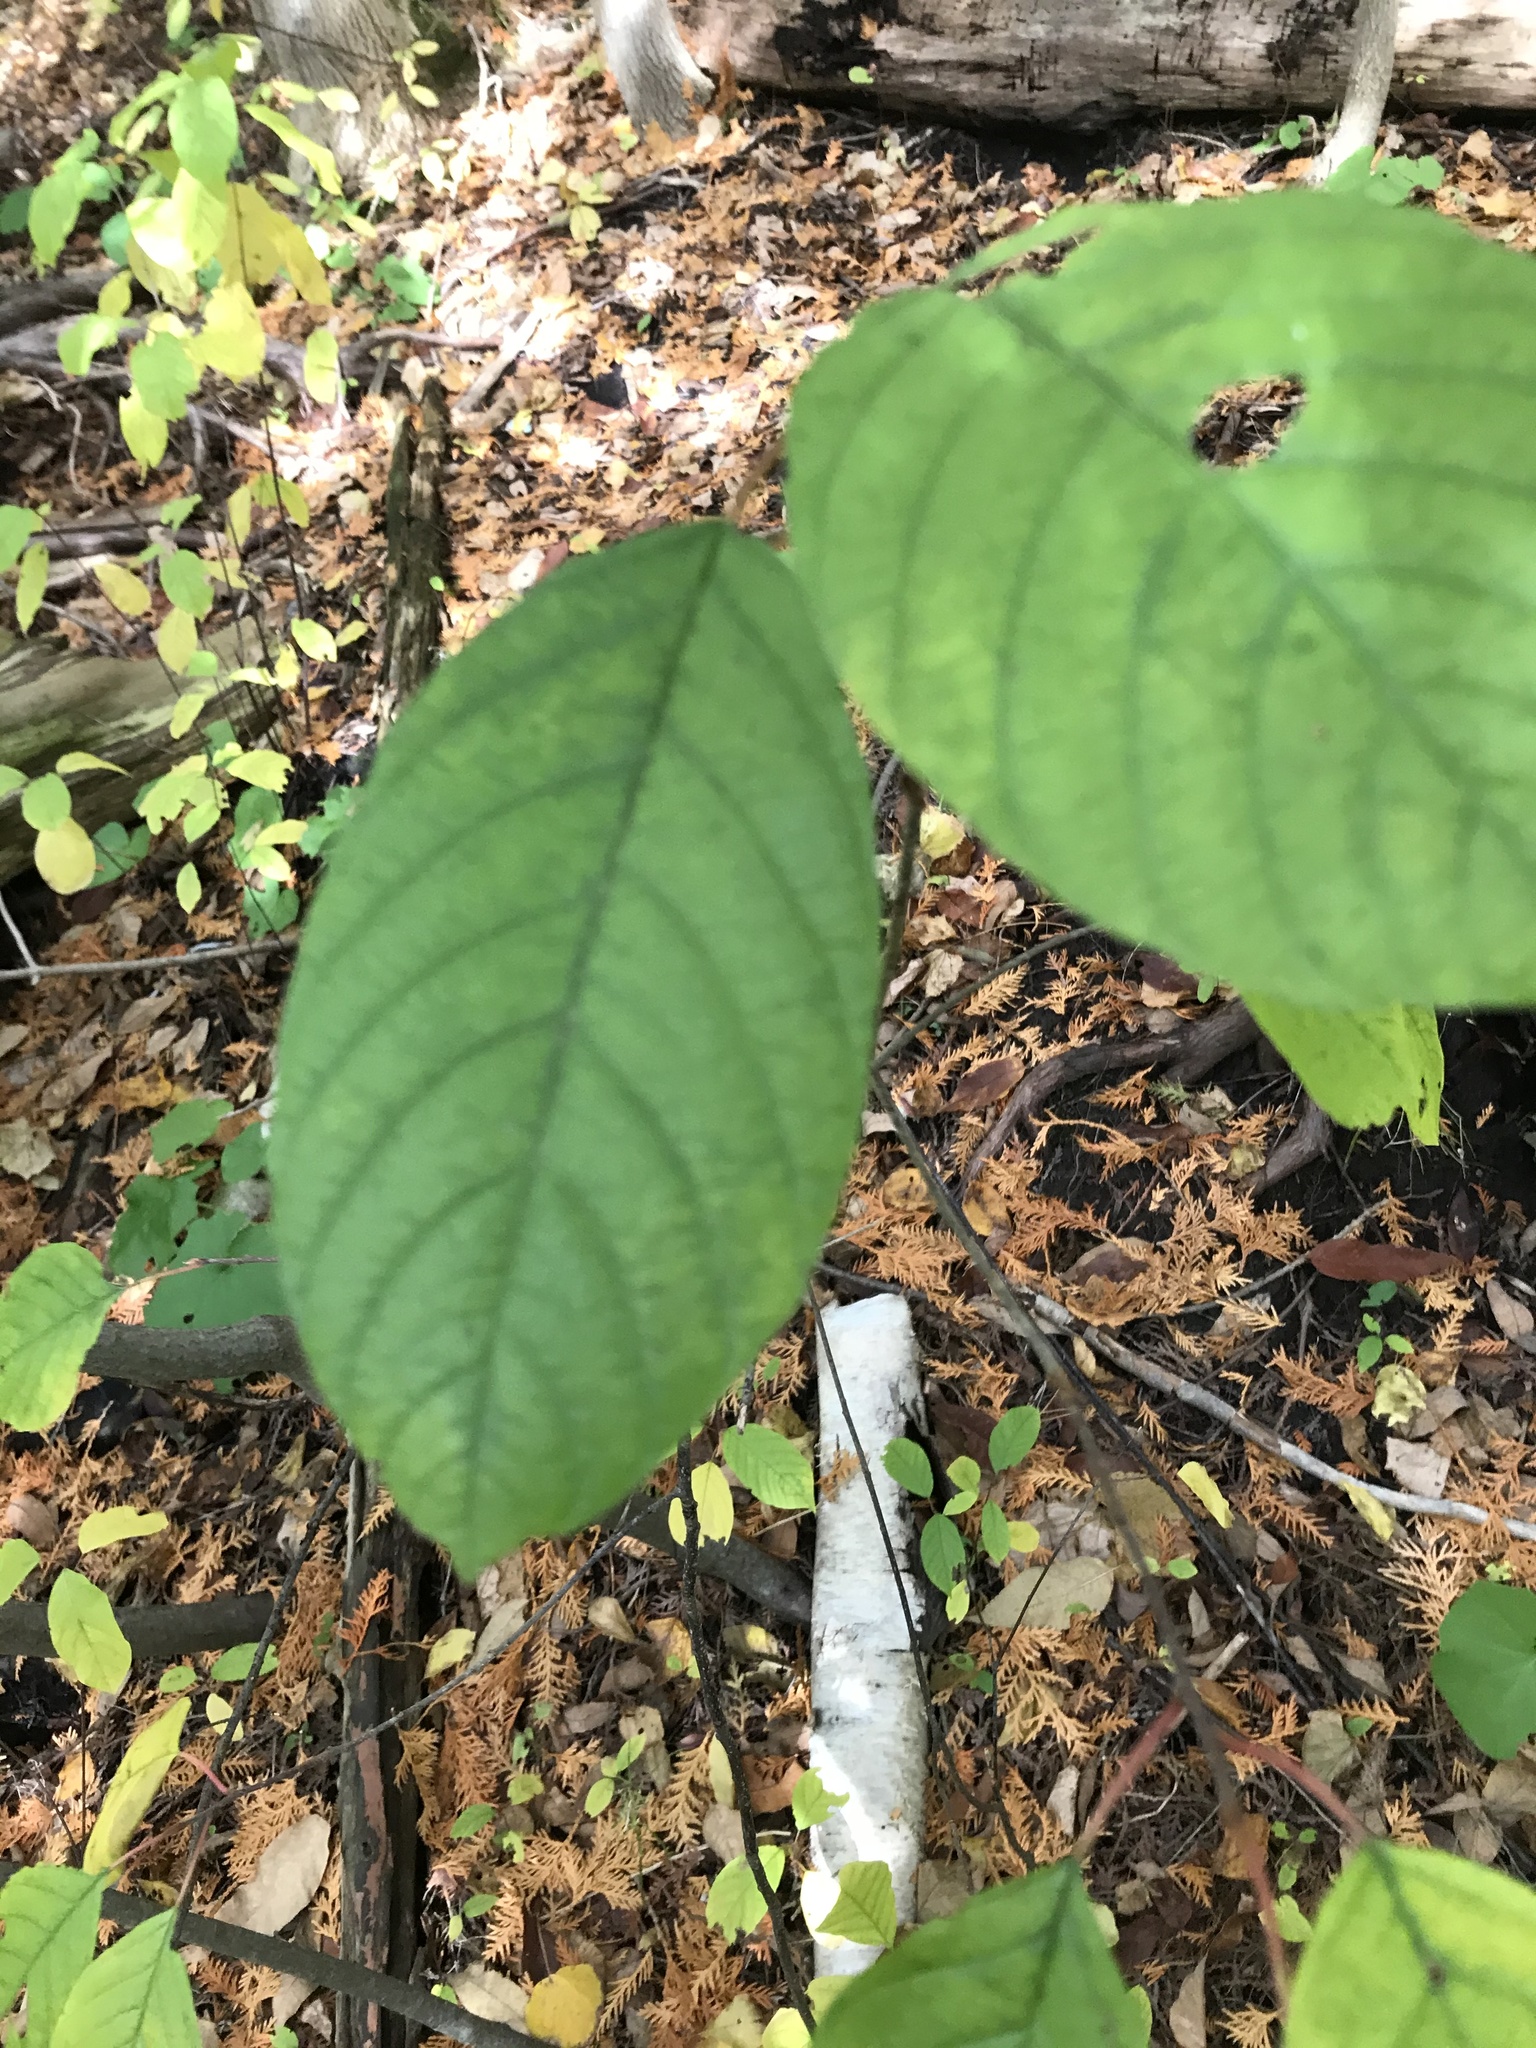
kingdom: Plantae
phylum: Tracheophyta
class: Magnoliopsida
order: Rosales
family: Rhamnaceae
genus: Frangula
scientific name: Frangula alnus
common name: Alder buckthorn
